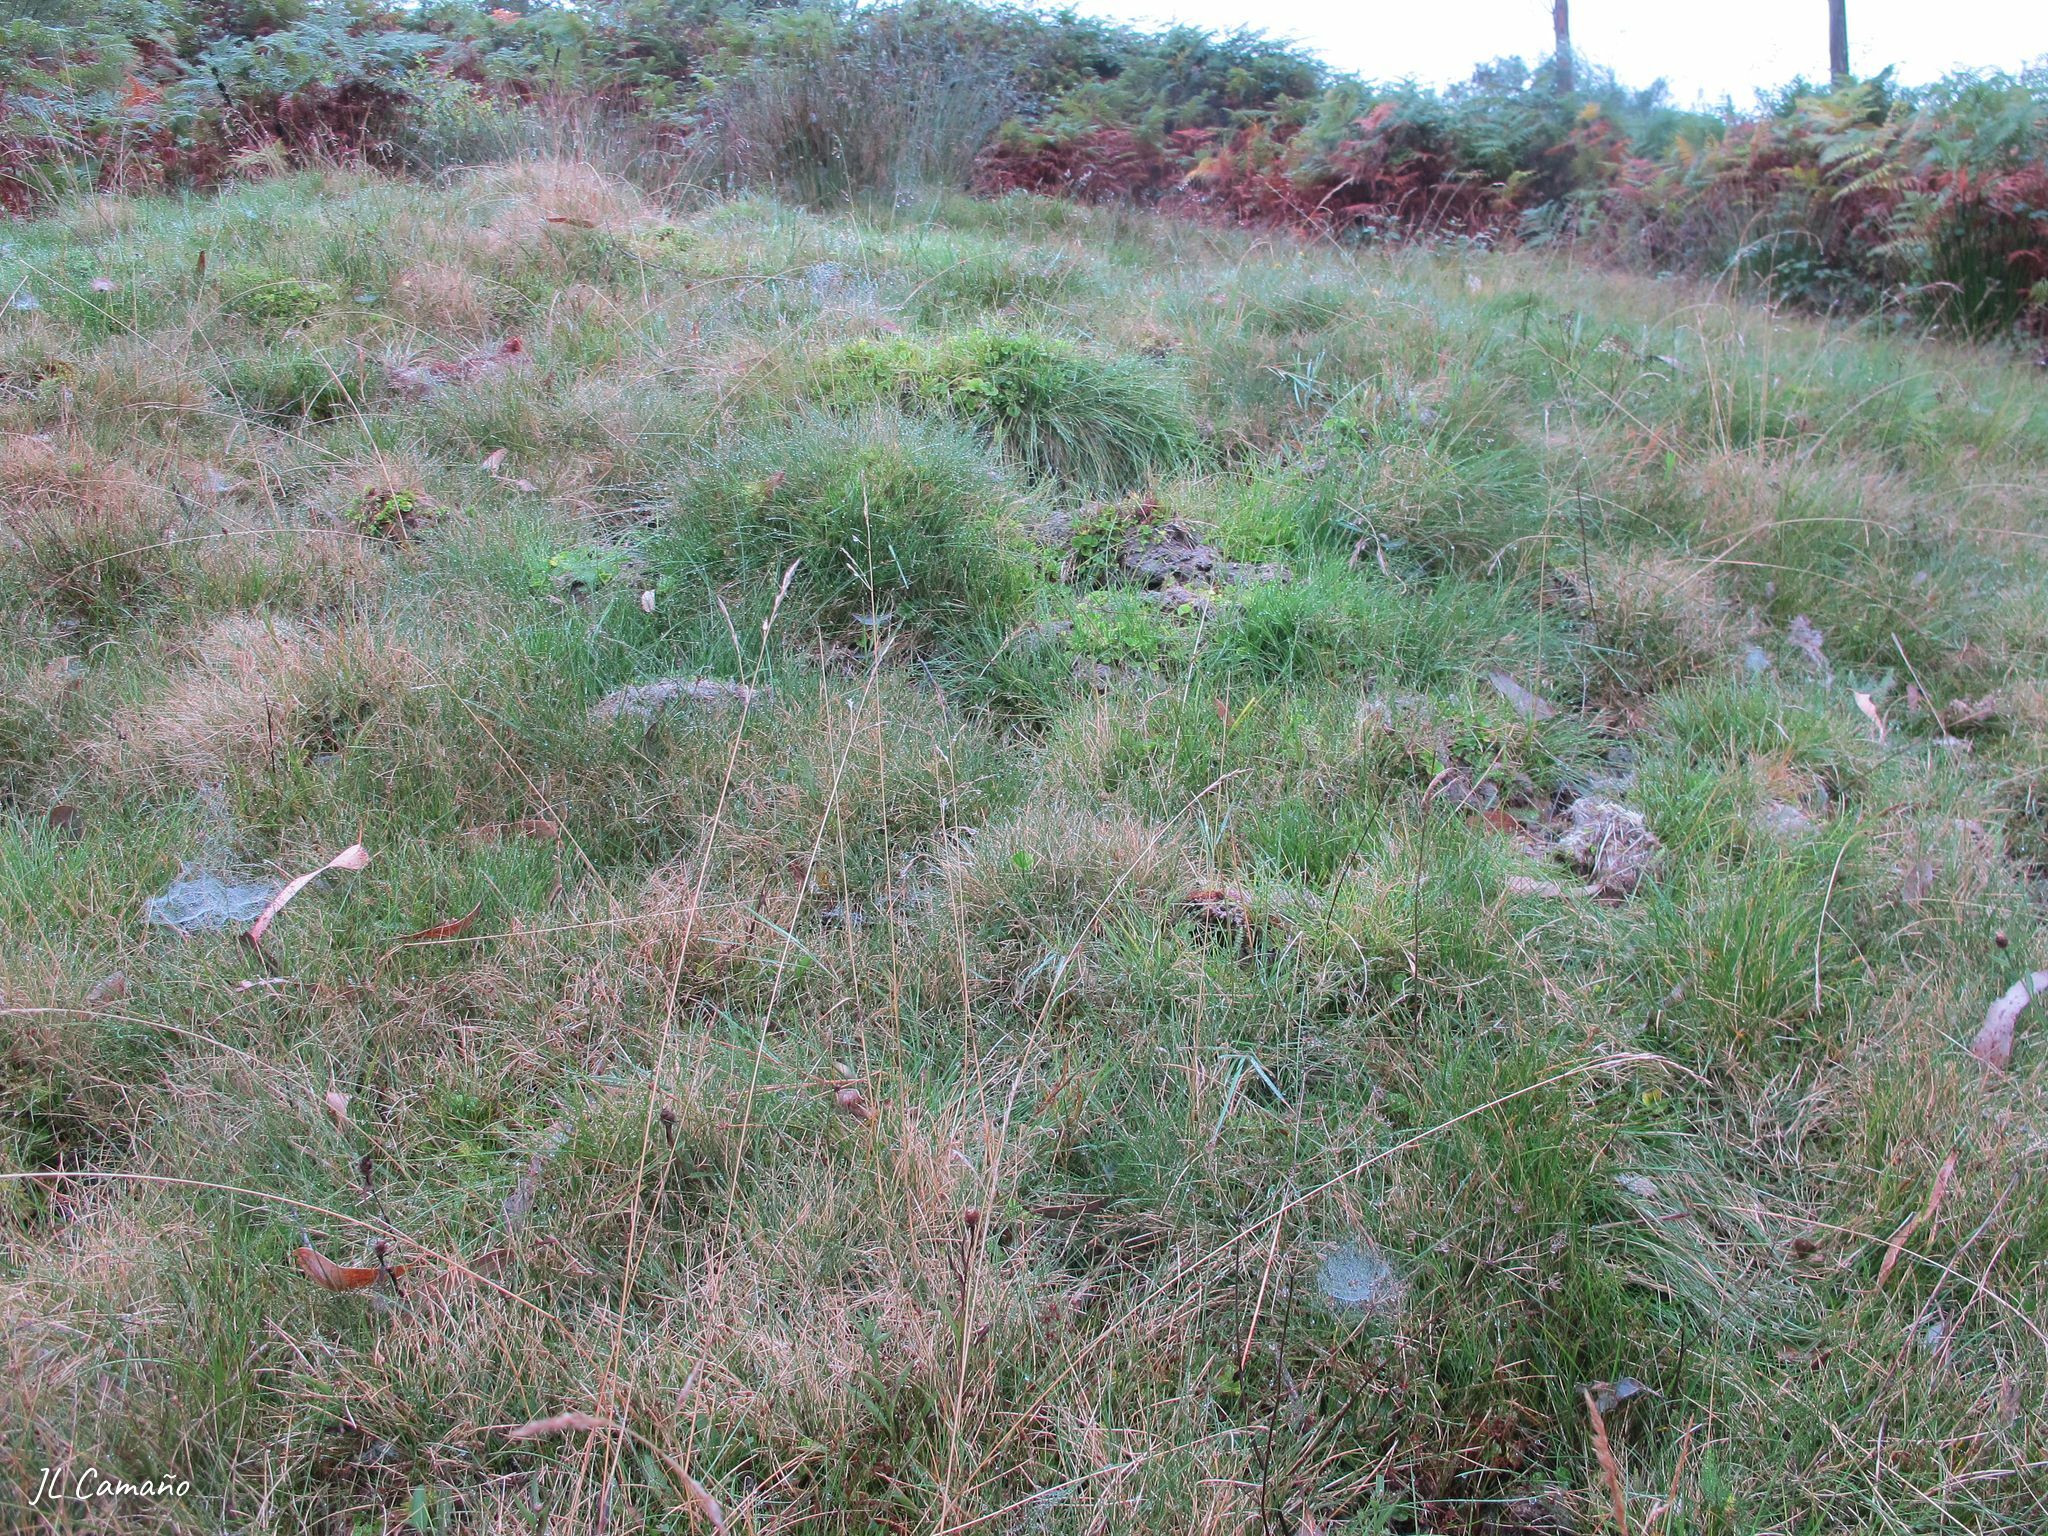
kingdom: Plantae
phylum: Bryophyta
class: Sphagnopsida
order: Sphagnales
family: Sphagnaceae
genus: Sphagnum
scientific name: Sphagnum denticulatum
